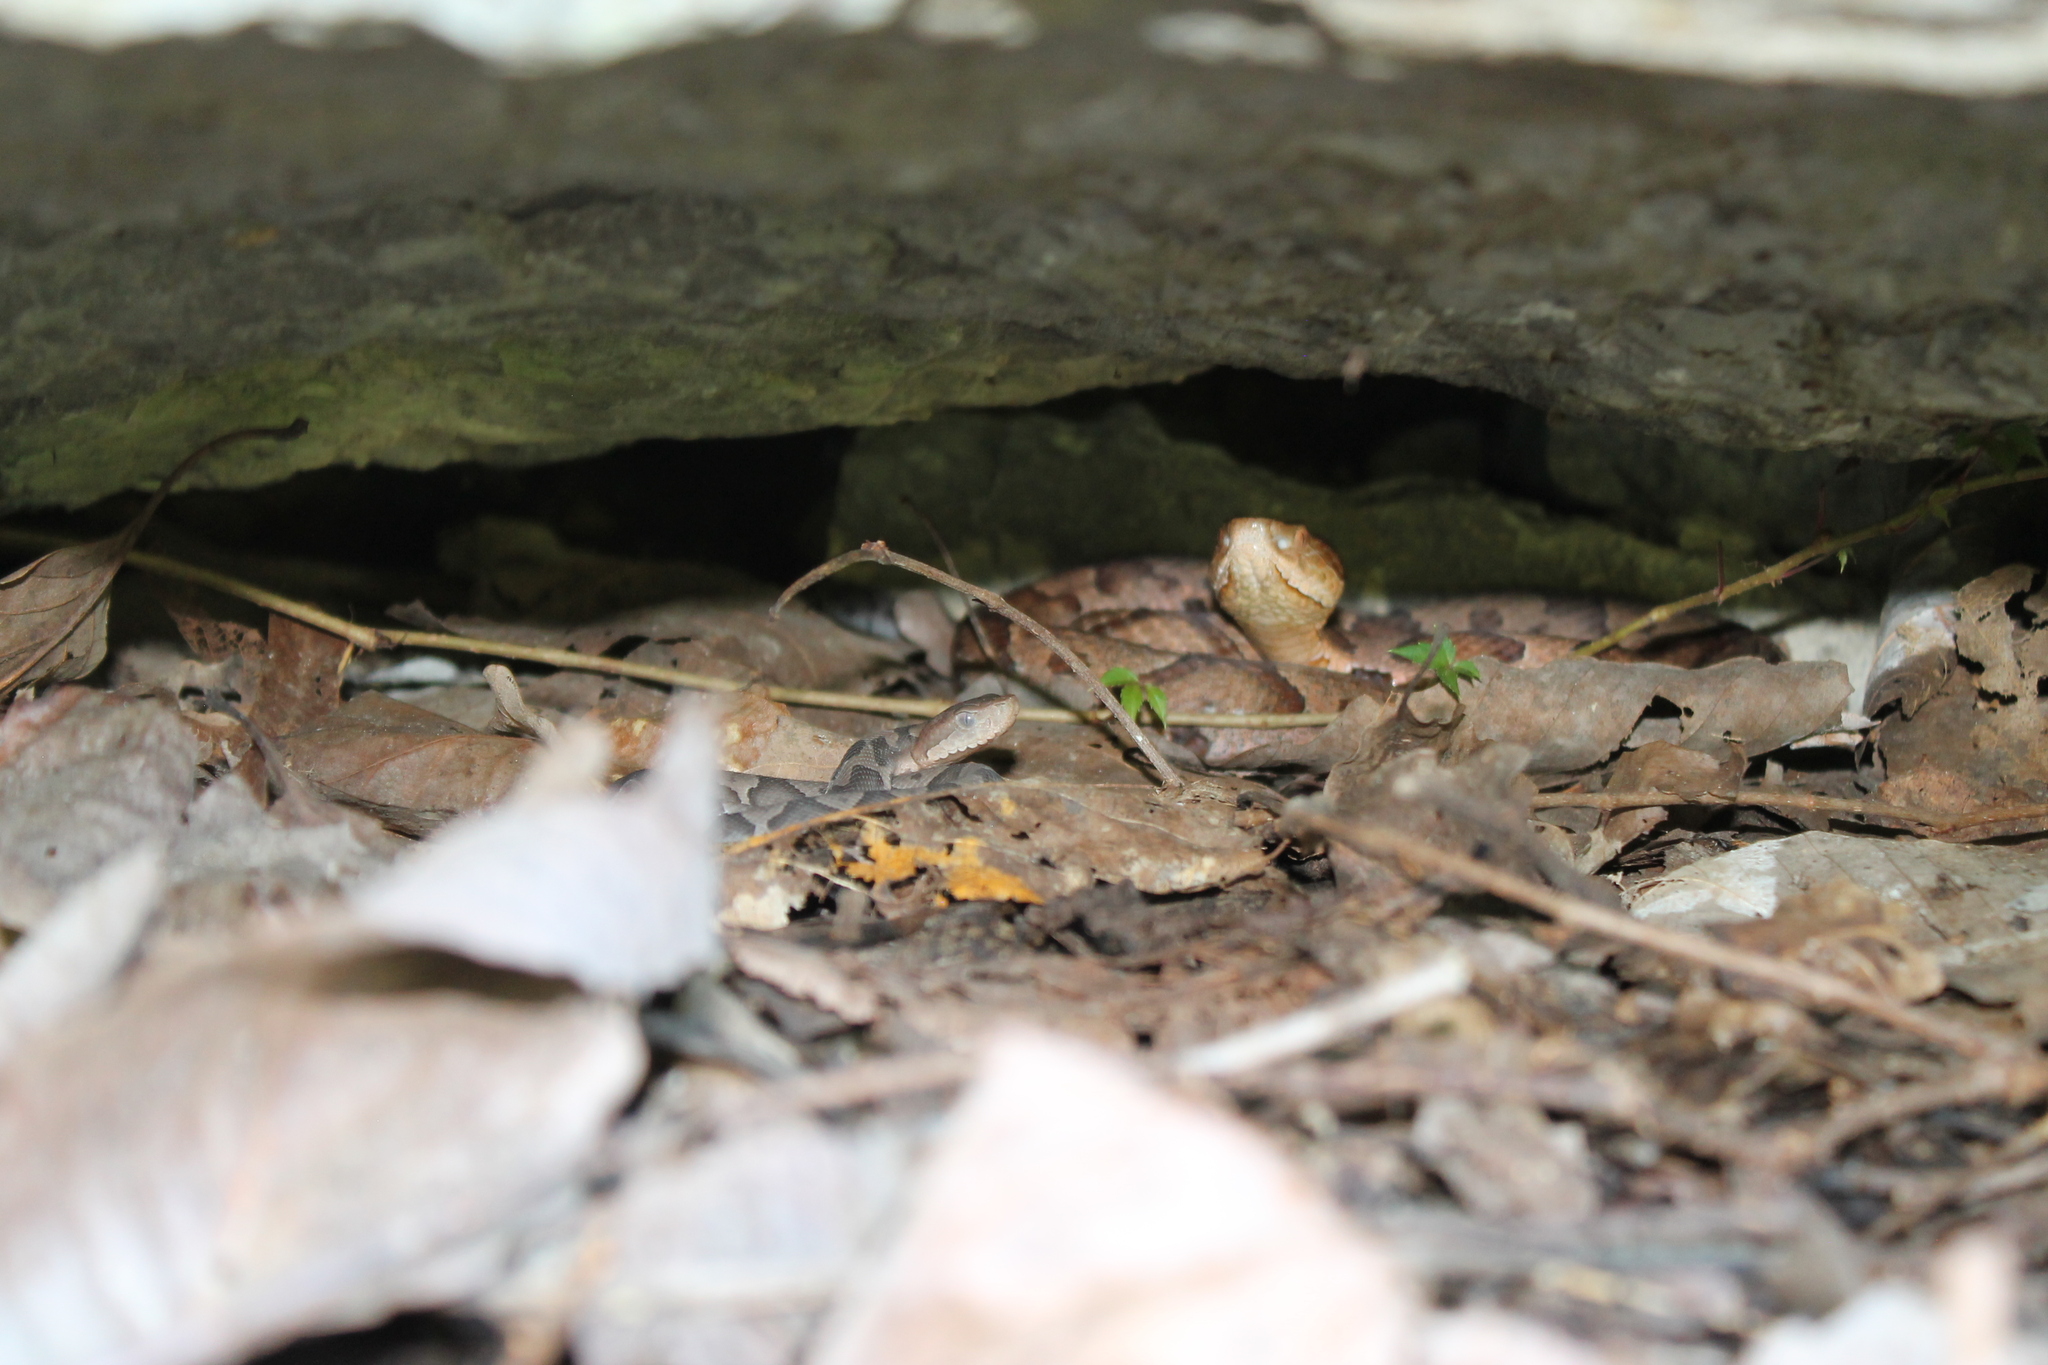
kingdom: Animalia
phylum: Chordata
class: Squamata
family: Viperidae
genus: Agkistrodon
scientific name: Agkistrodon contortrix
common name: Northern copperhead
